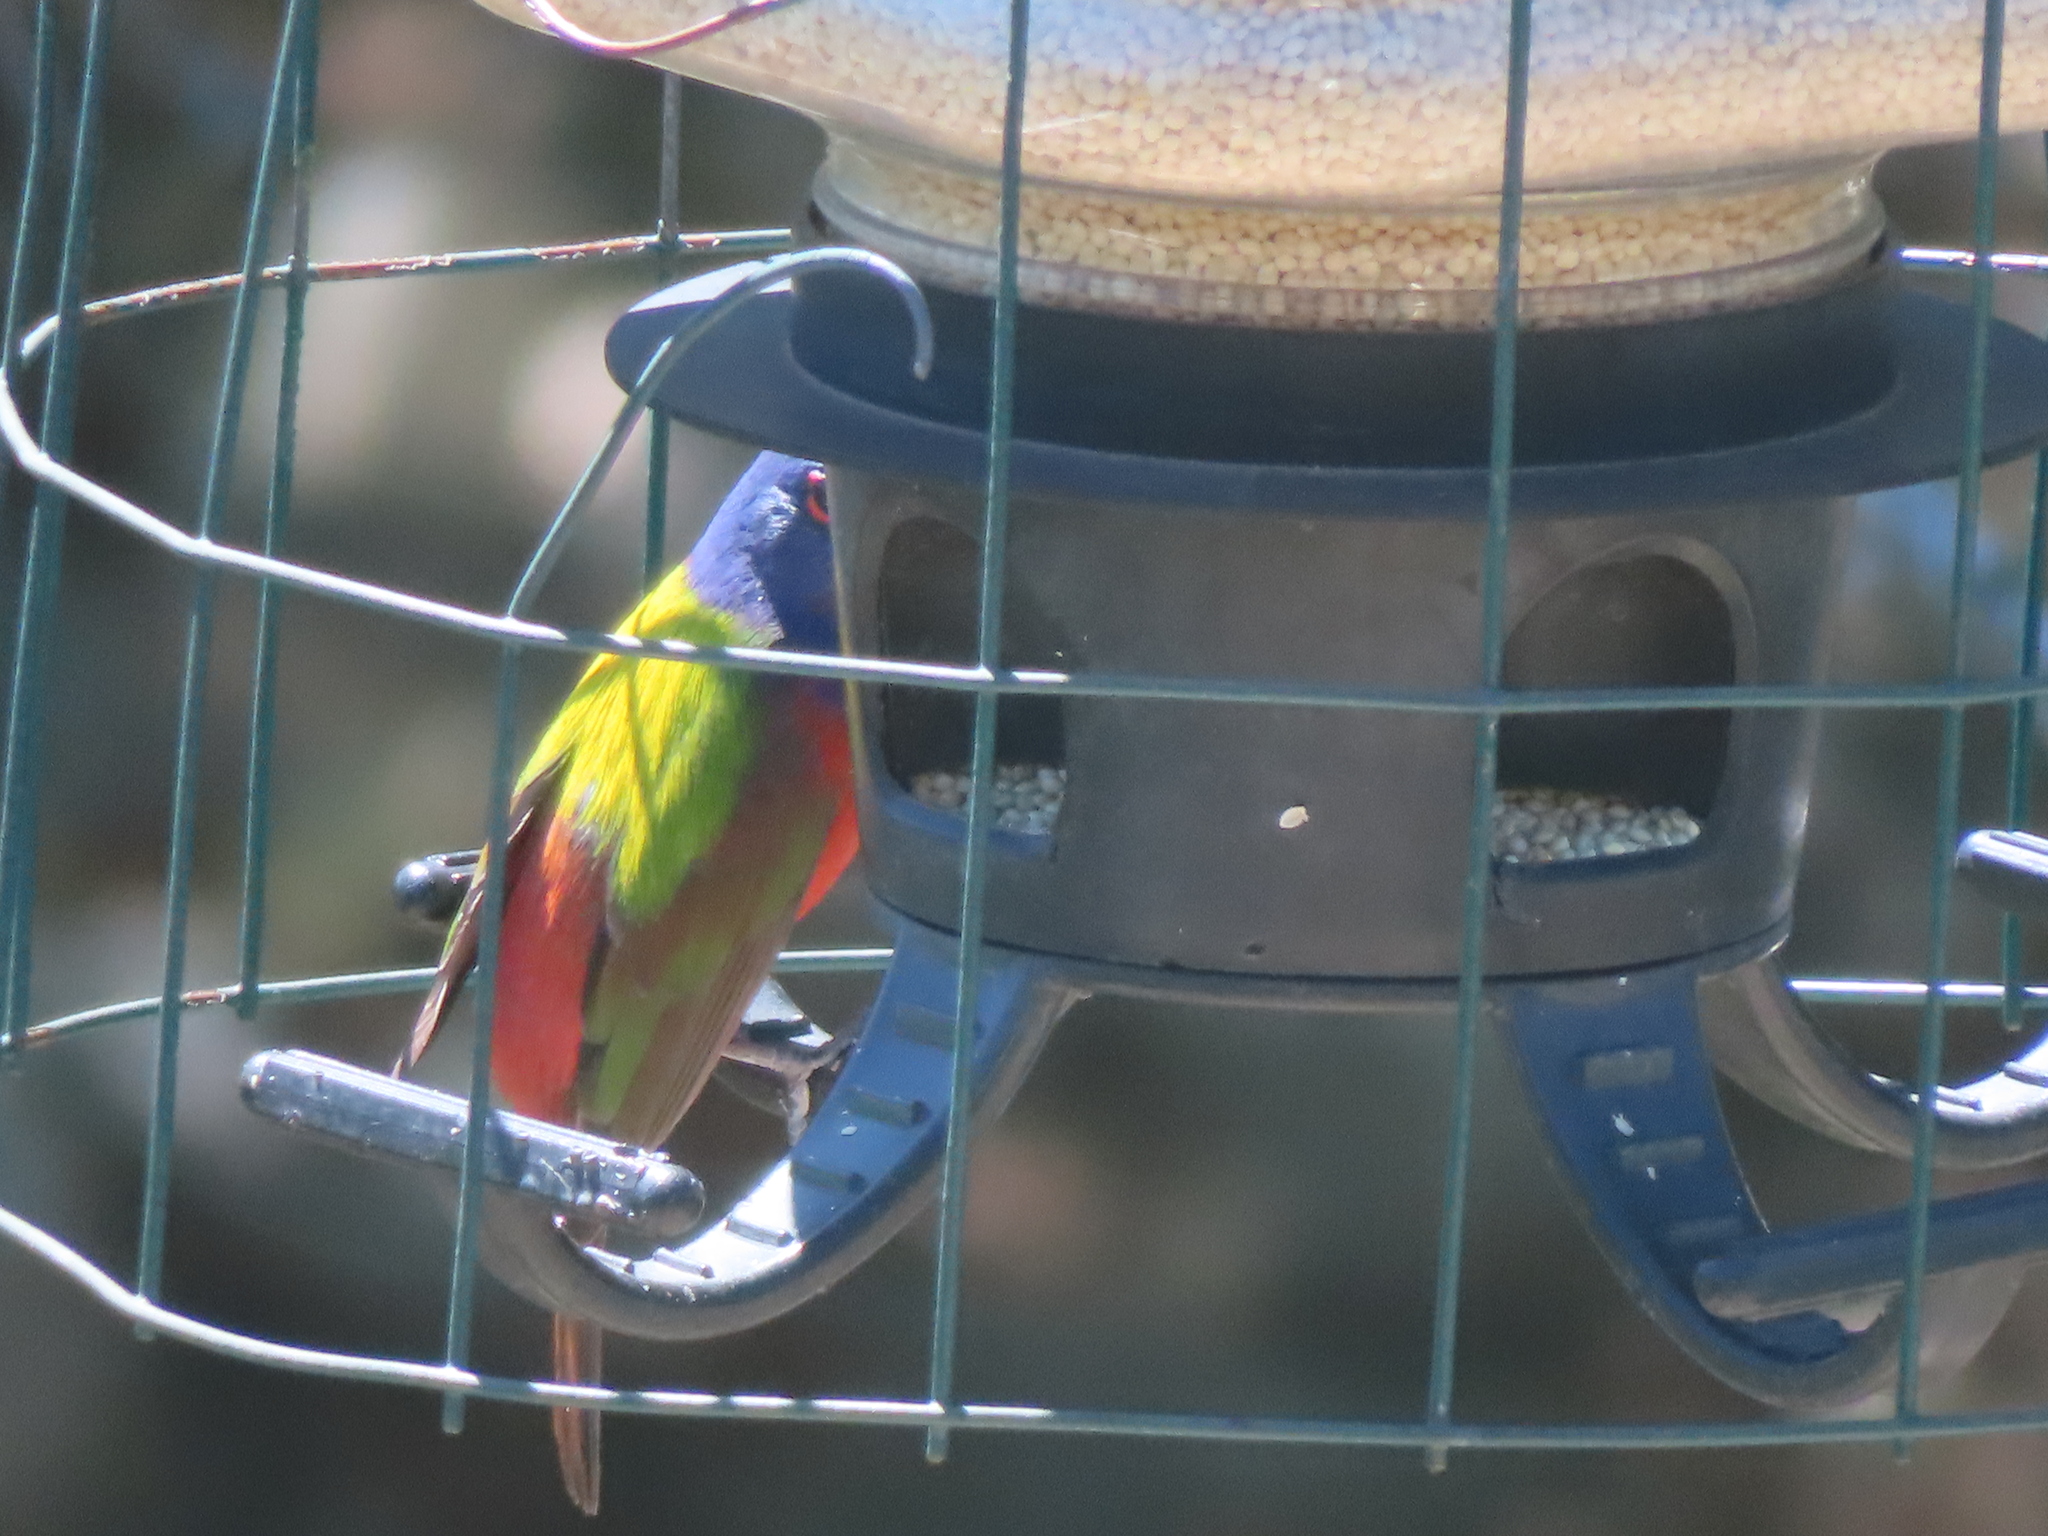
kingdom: Animalia
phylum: Chordata
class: Aves
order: Passeriformes
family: Cardinalidae
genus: Passerina
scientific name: Passerina ciris
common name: Painted bunting
